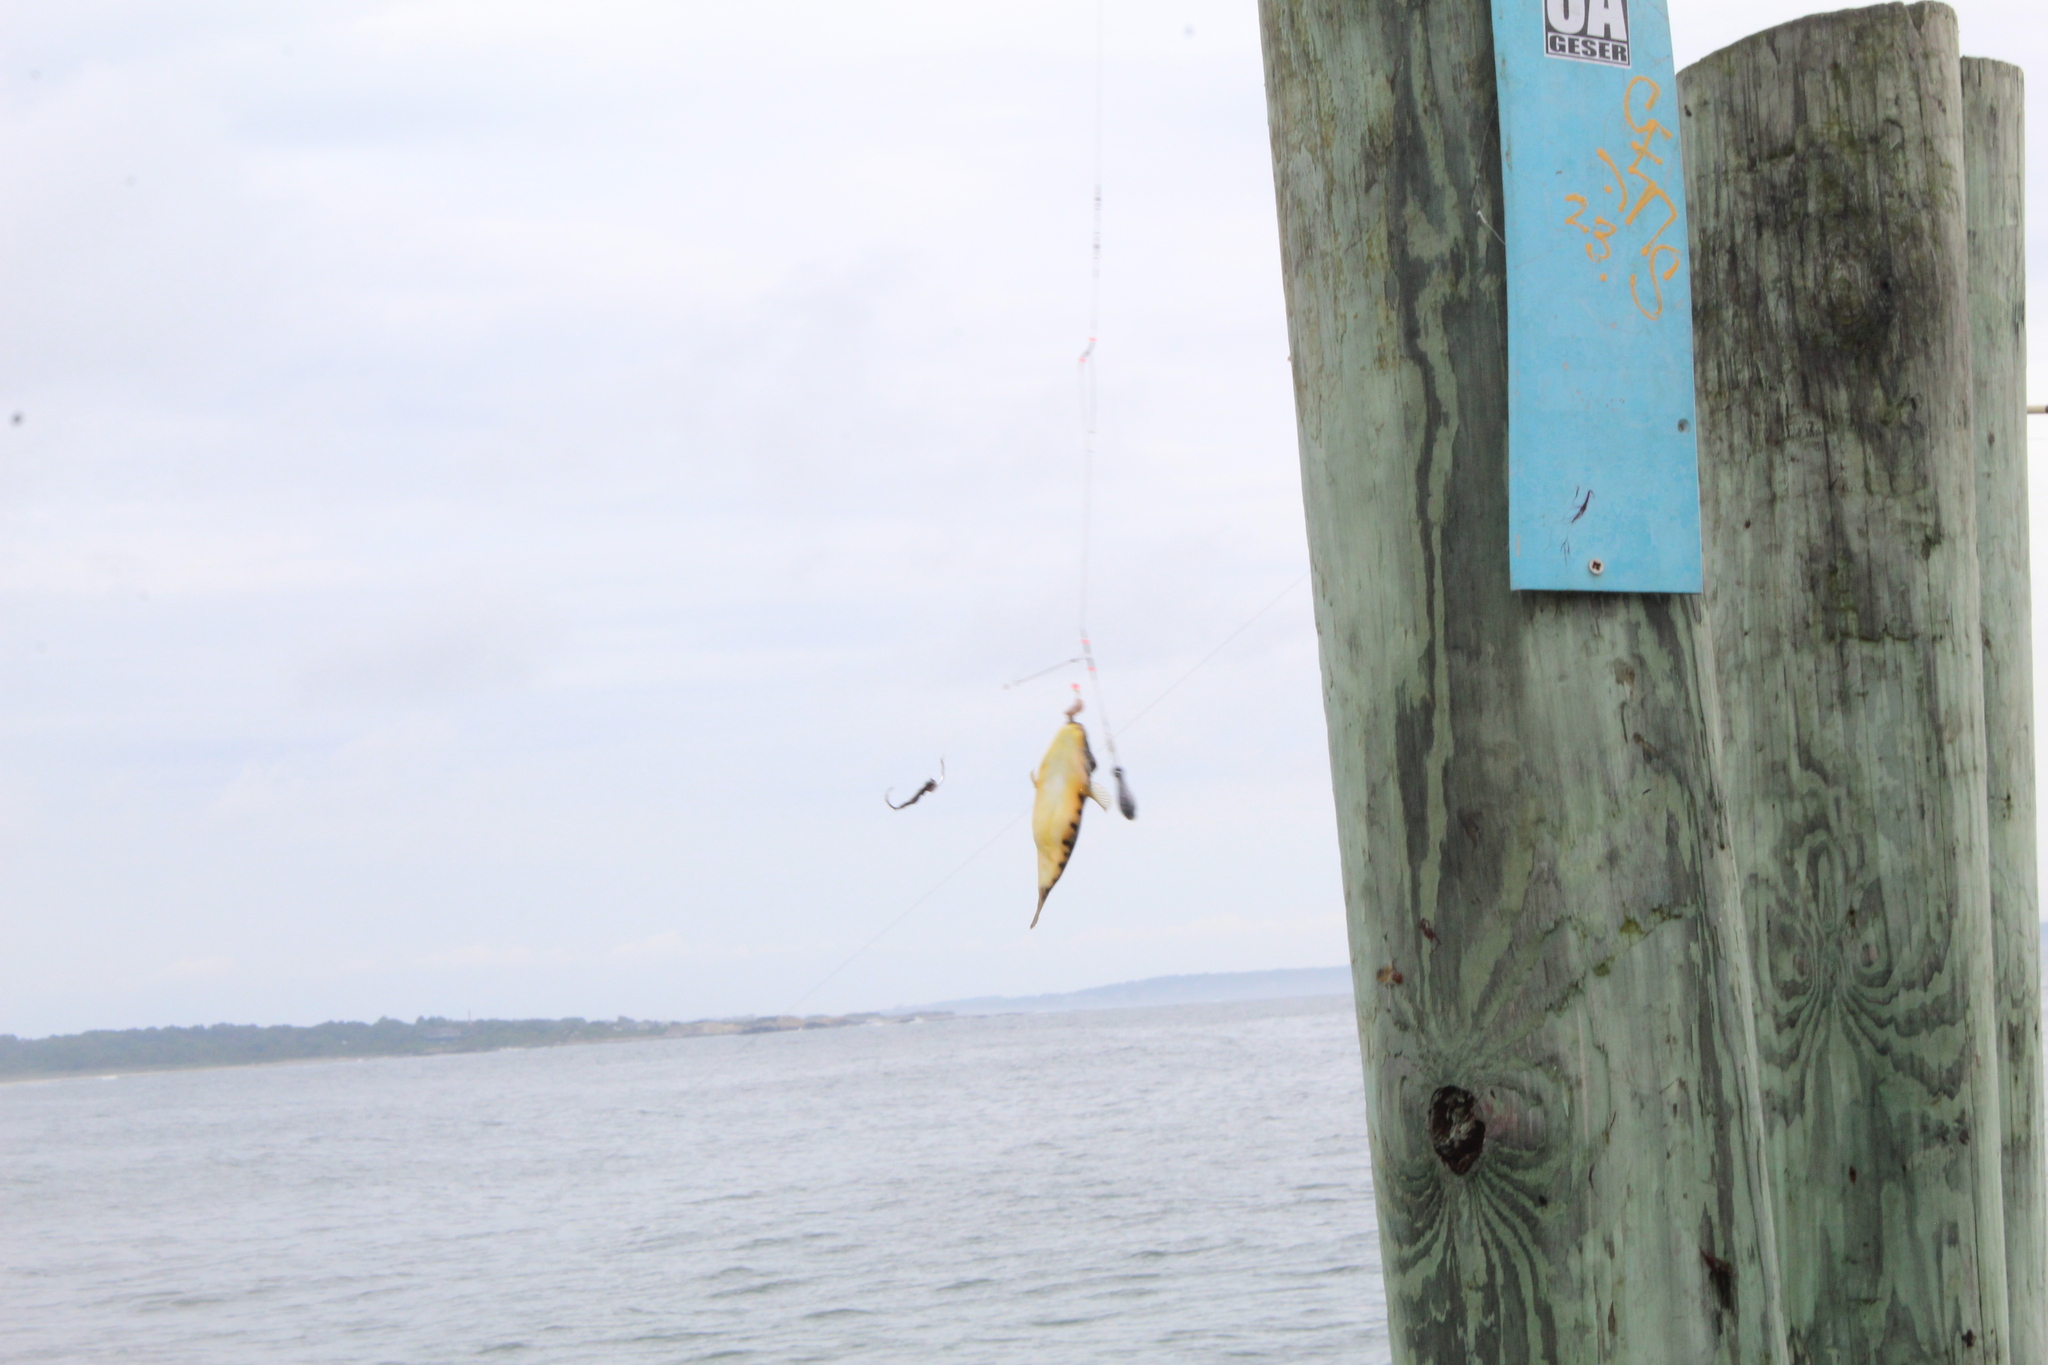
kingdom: Animalia
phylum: Chordata
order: Tetraodontiformes
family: Tetraodontidae
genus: Sphoeroides
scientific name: Sphoeroides maculatus
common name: Northern puffer
